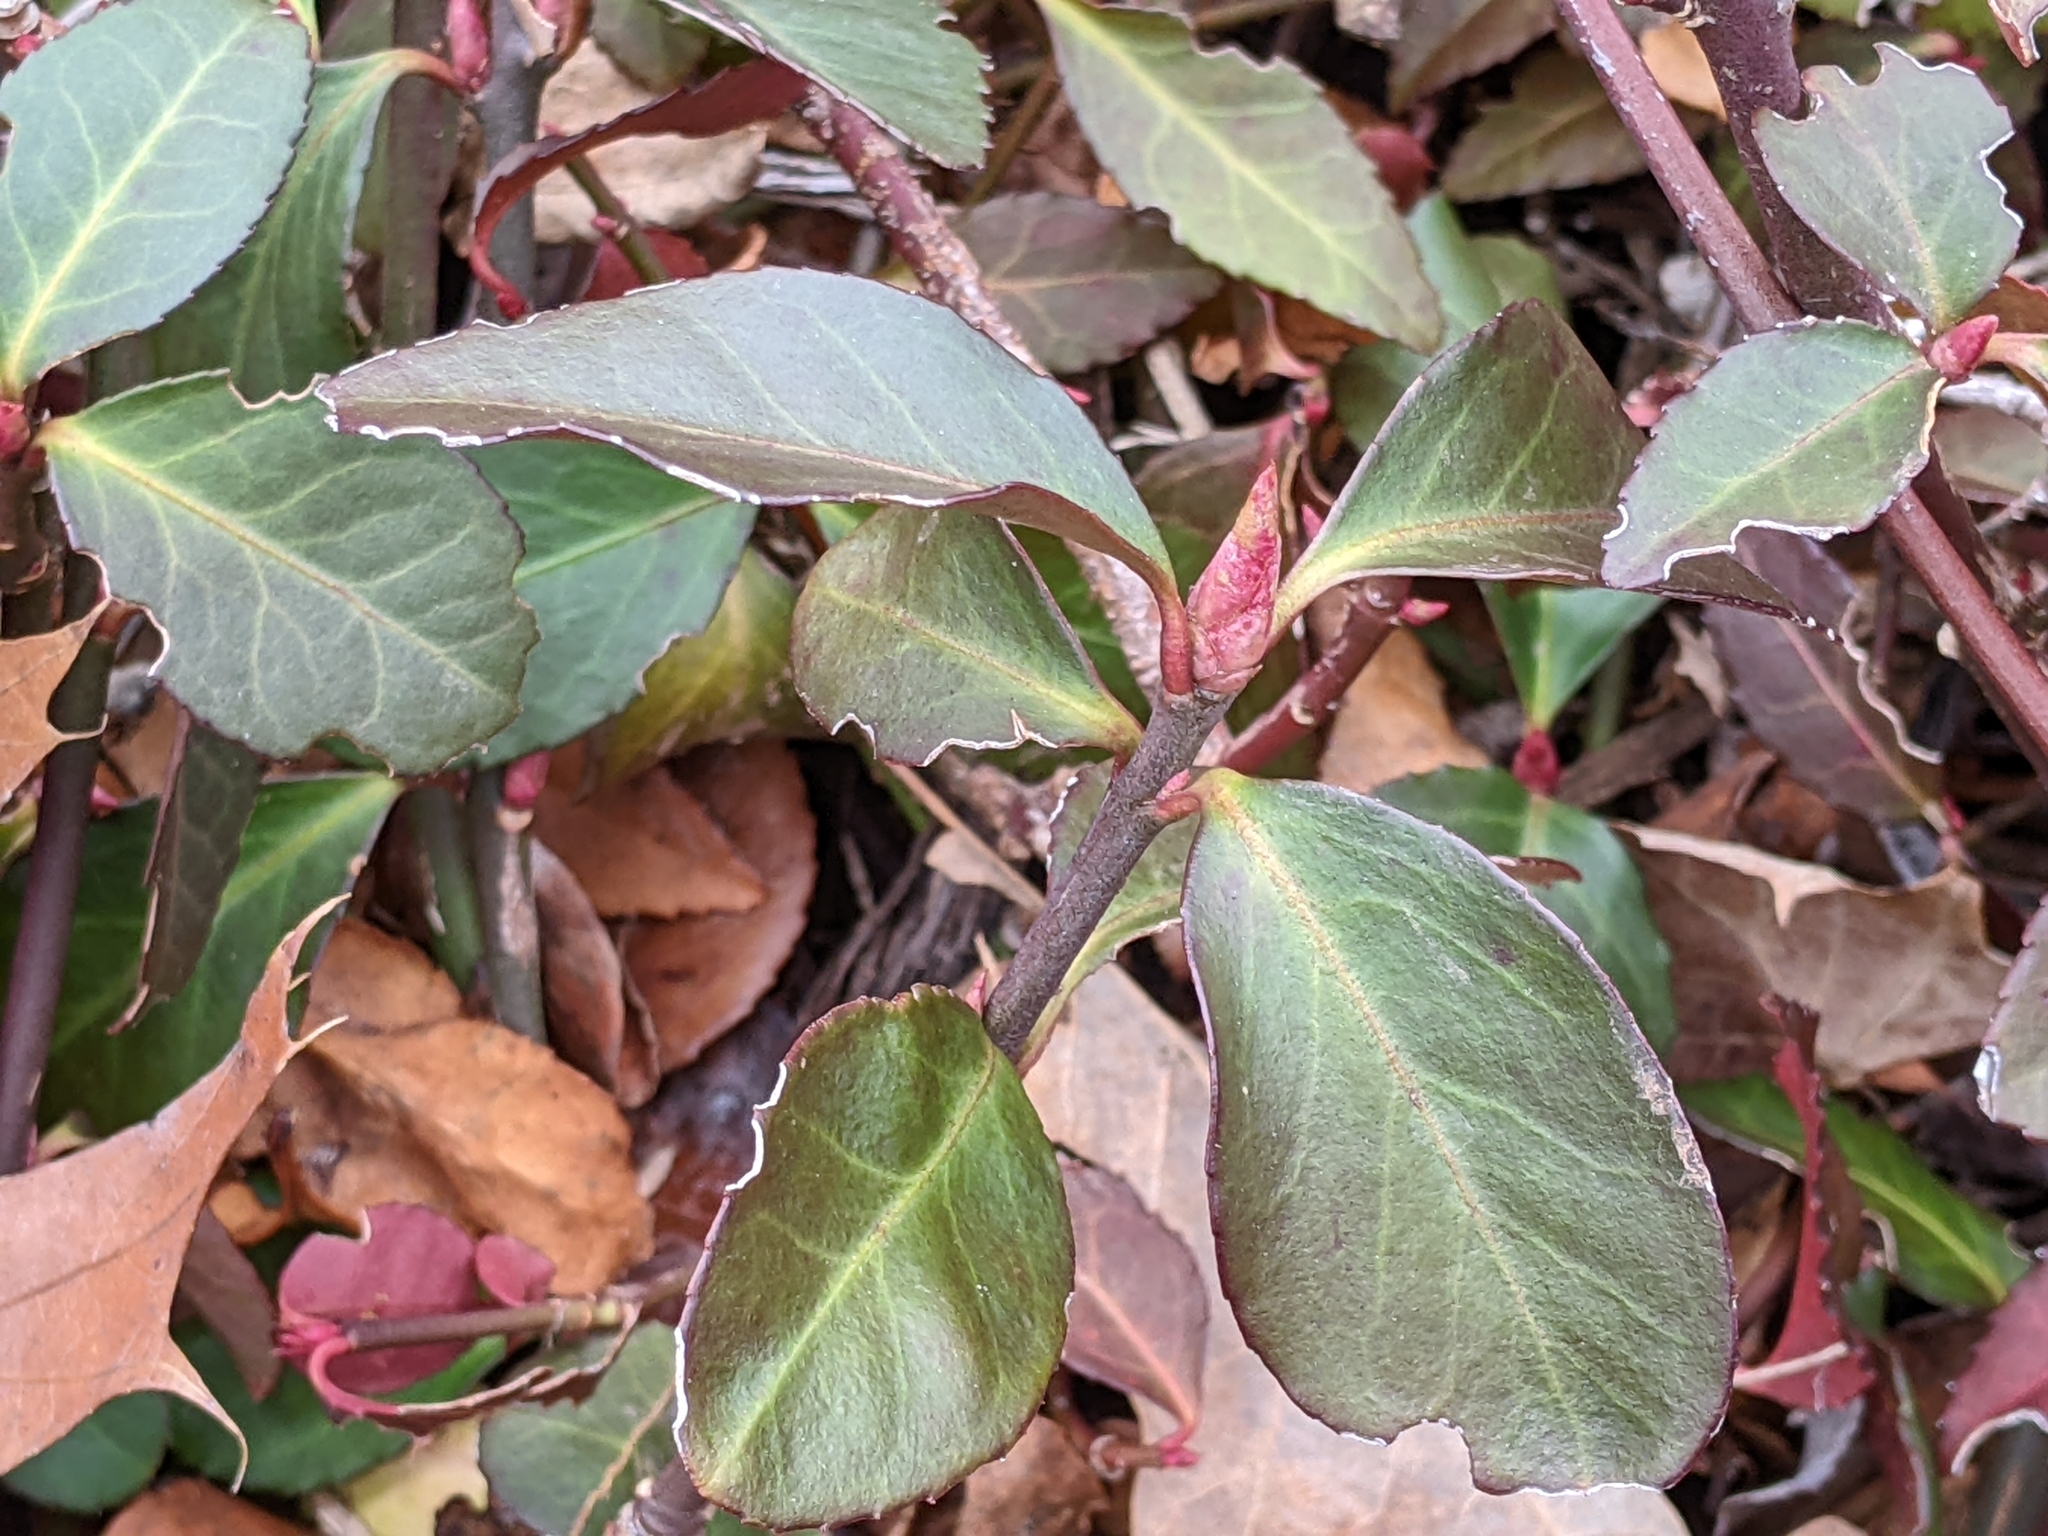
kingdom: Plantae
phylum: Tracheophyta
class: Magnoliopsida
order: Celastrales
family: Celastraceae
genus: Euonymus
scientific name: Euonymus fortunei
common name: Climbing euonymus
